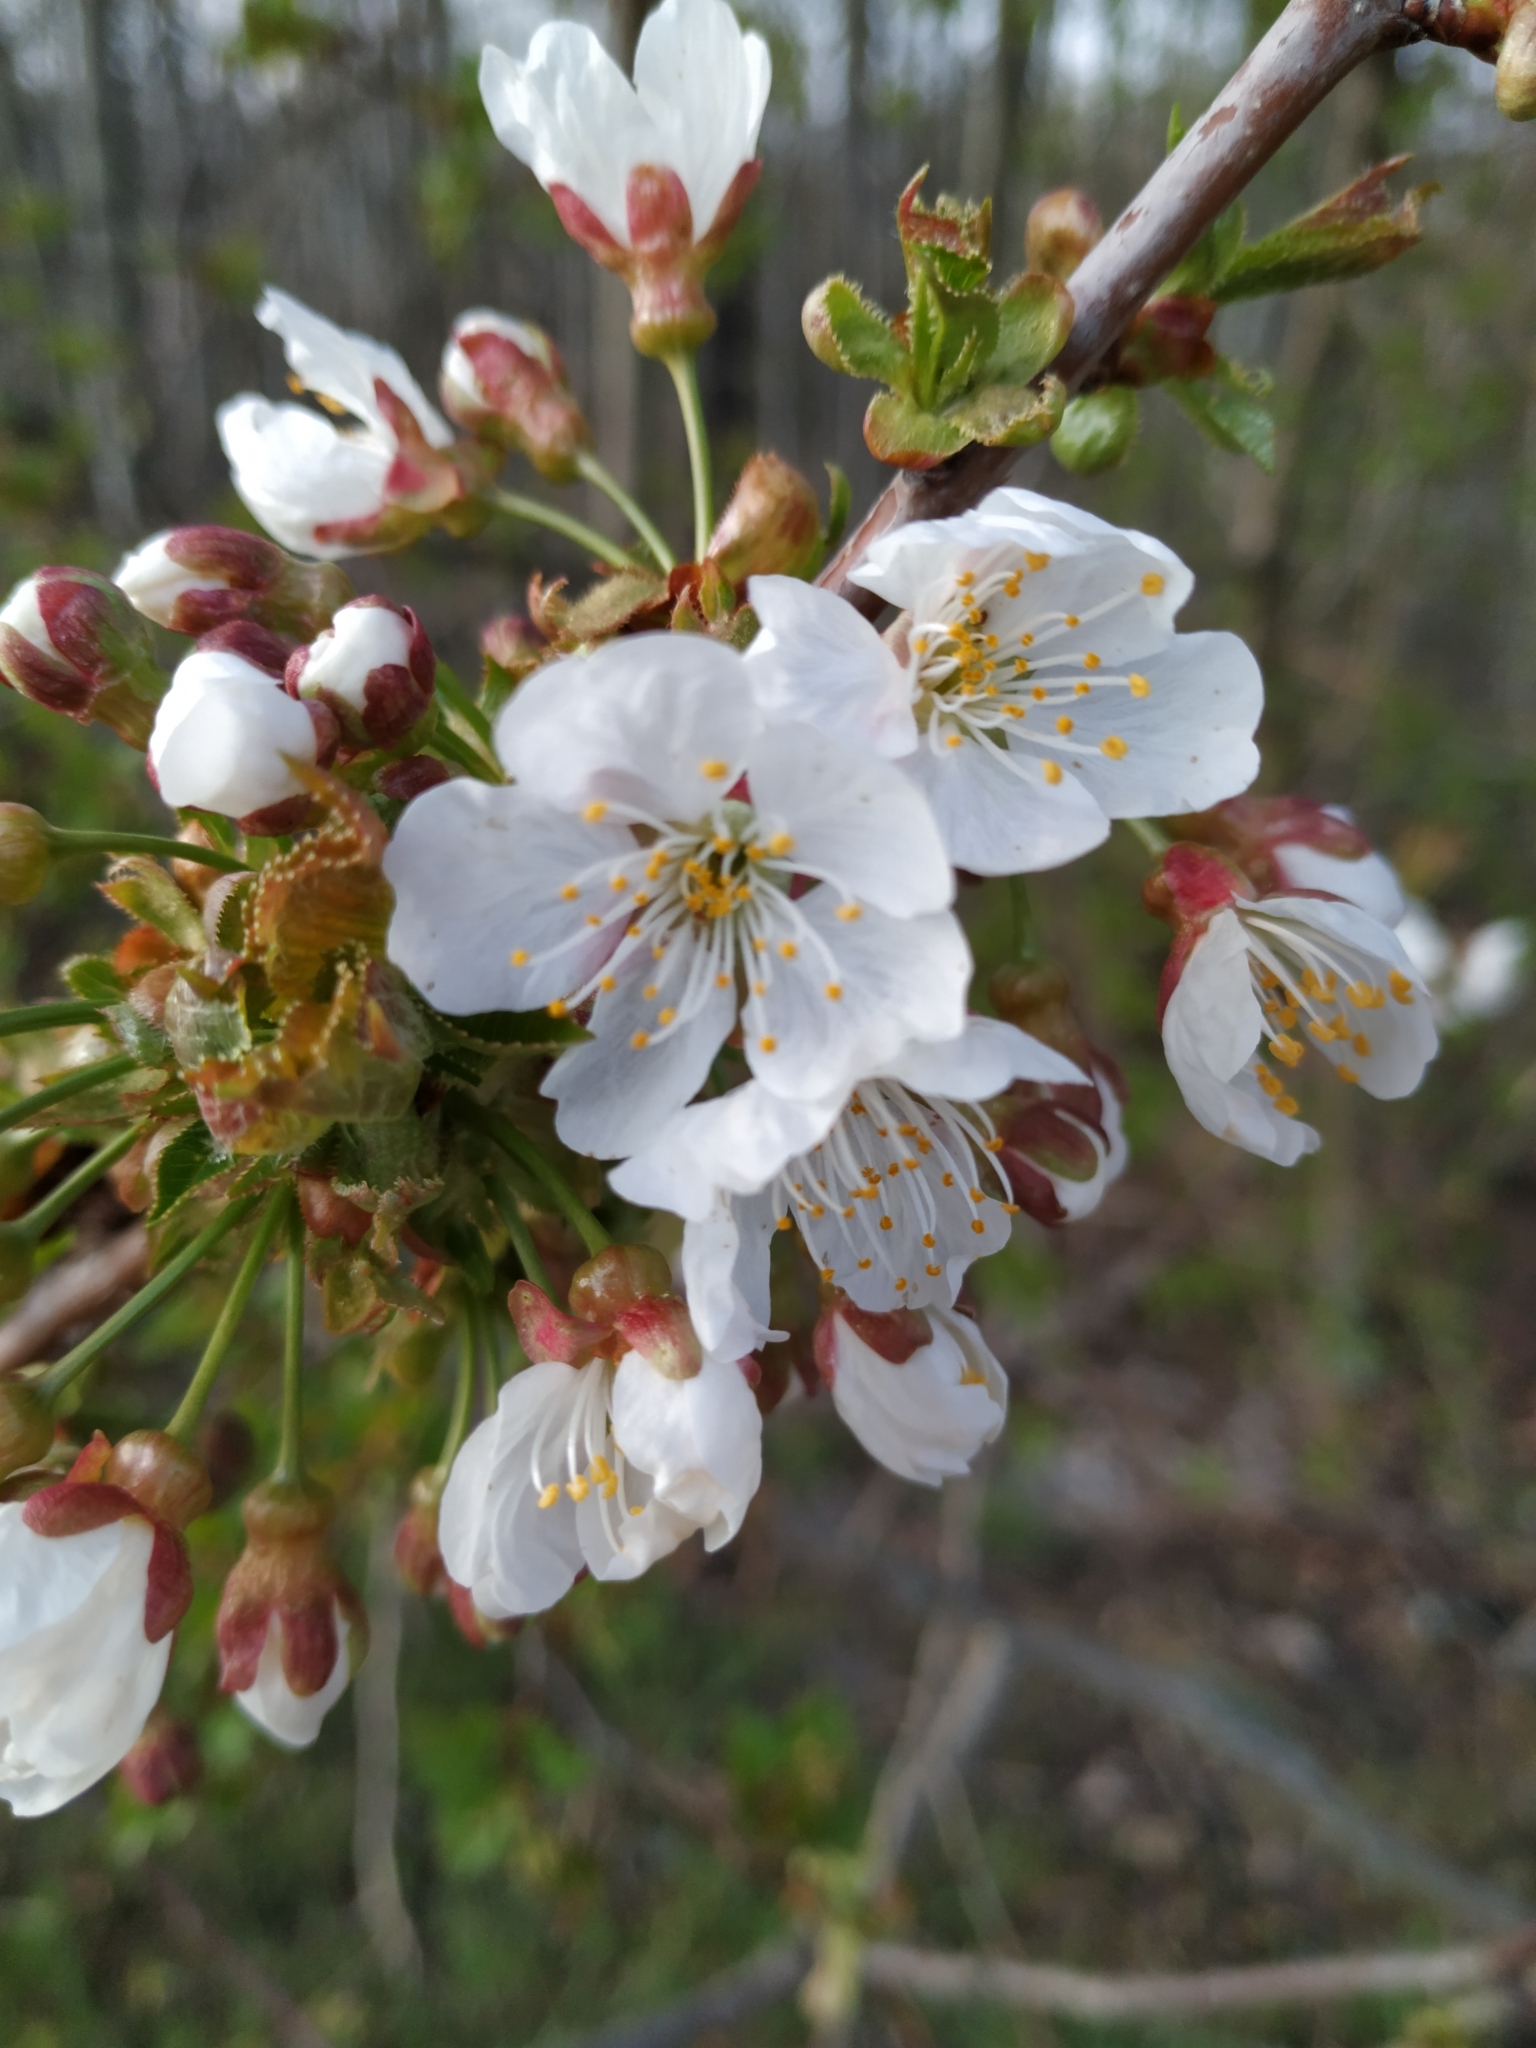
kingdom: Plantae
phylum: Tracheophyta
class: Magnoliopsida
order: Rosales
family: Rosaceae
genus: Prunus
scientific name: Prunus avium
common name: Sweet cherry
